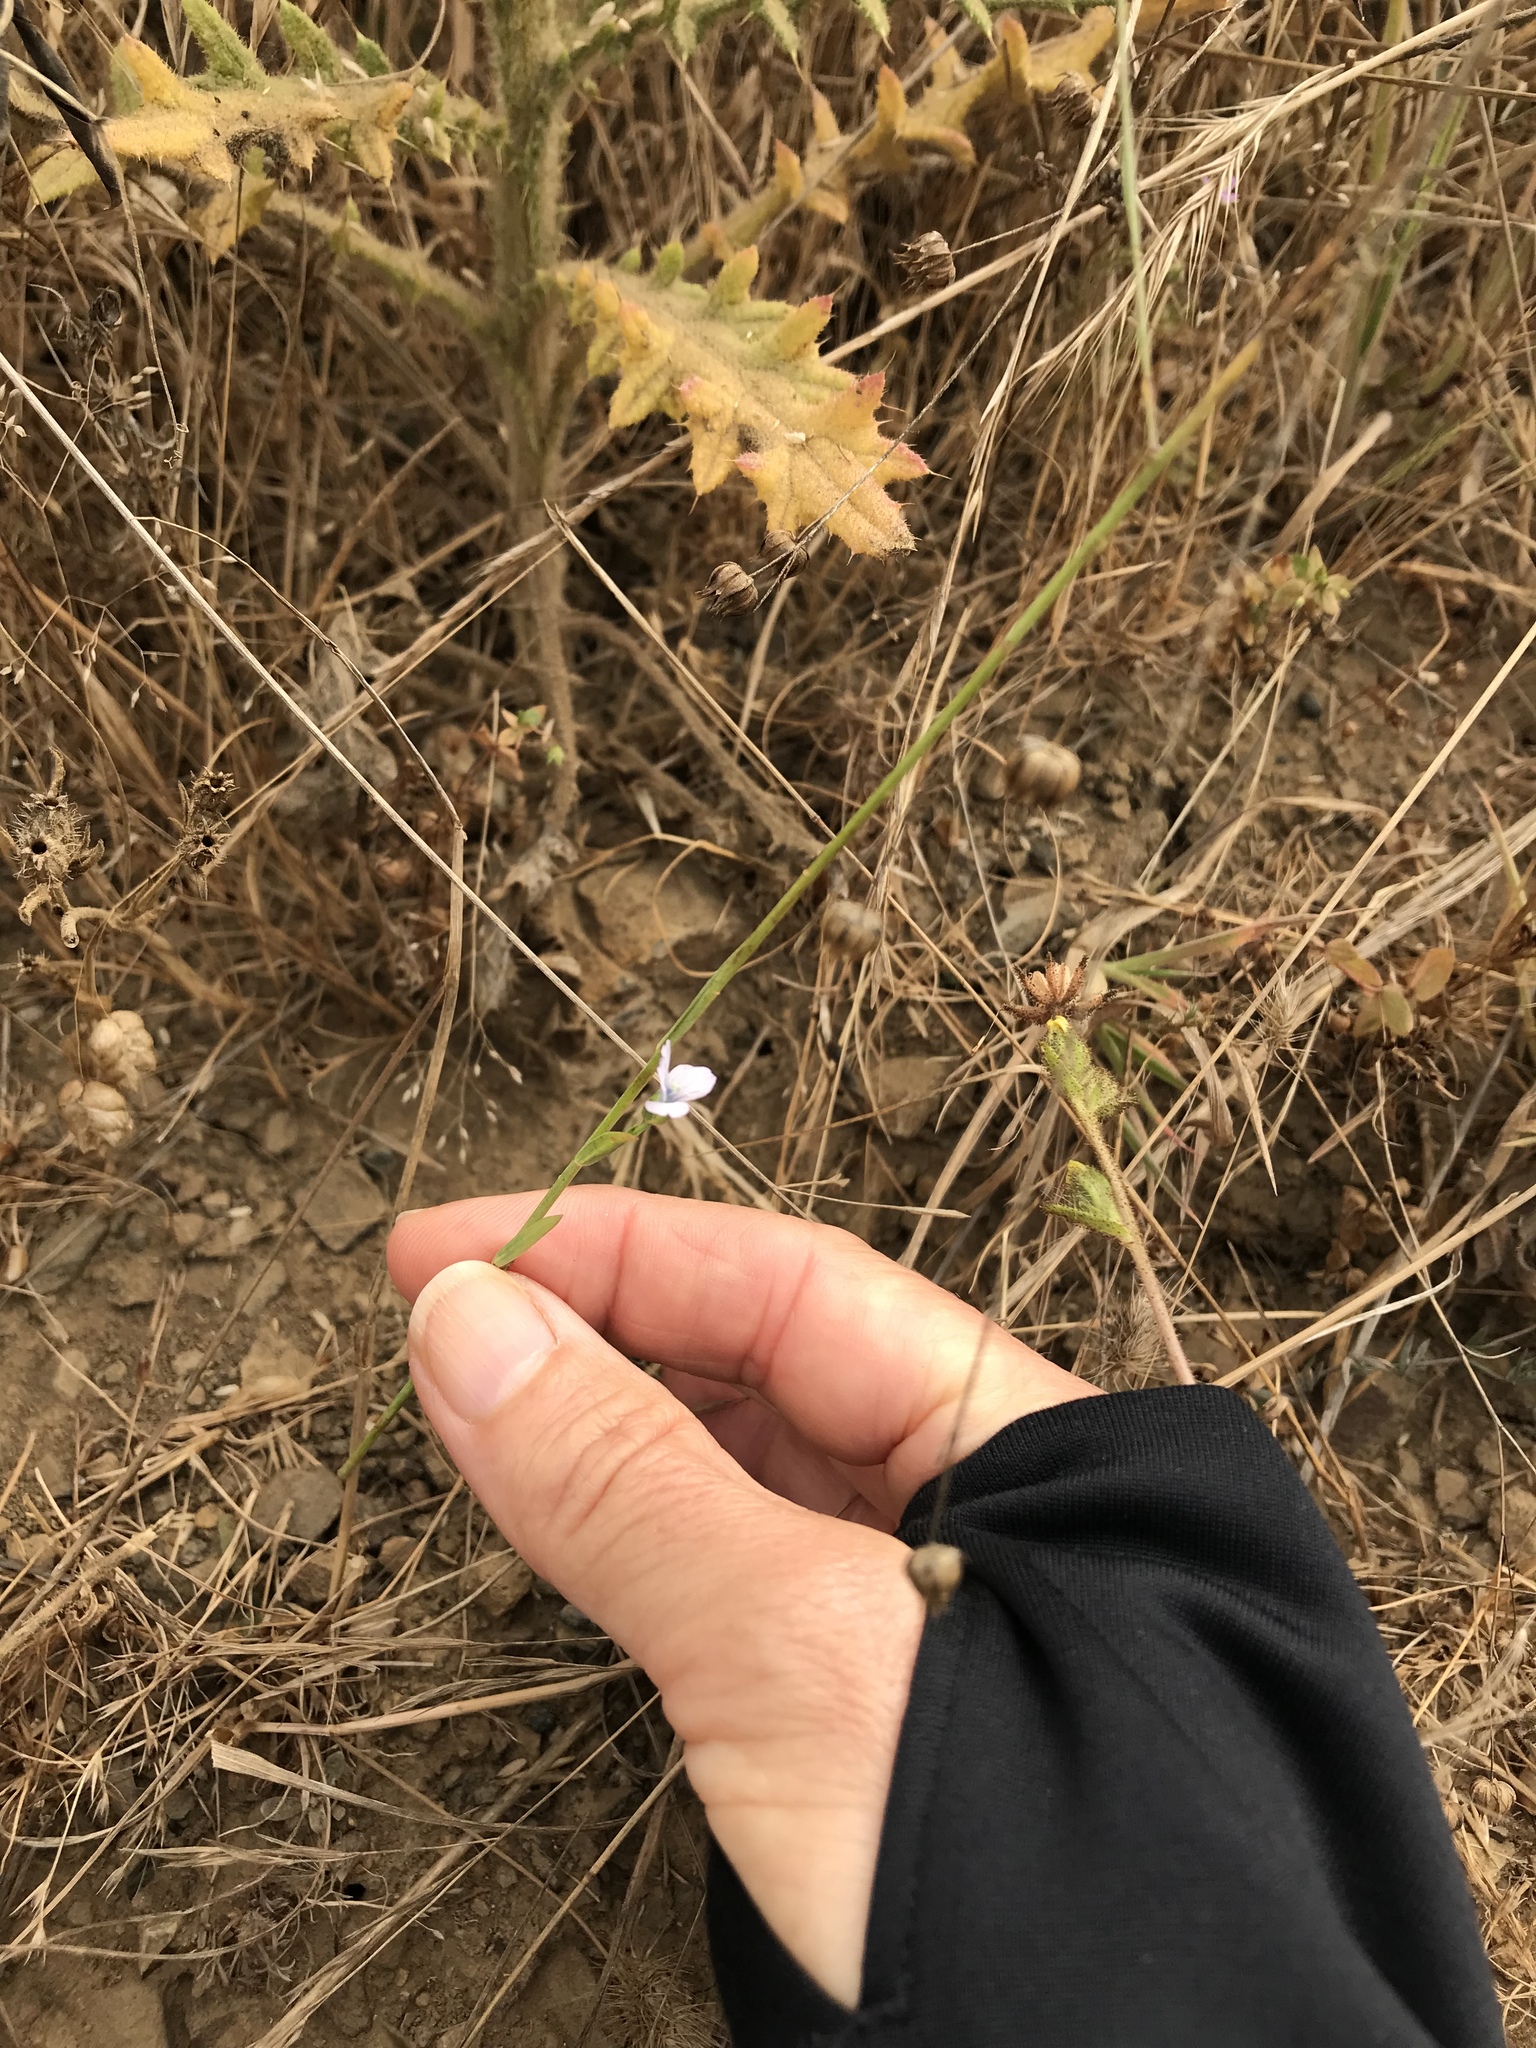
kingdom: Plantae
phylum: Tracheophyta
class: Magnoliopsida
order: Malpighiales
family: Linaceae
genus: Linum
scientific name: Linum bienne
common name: Pale flax
